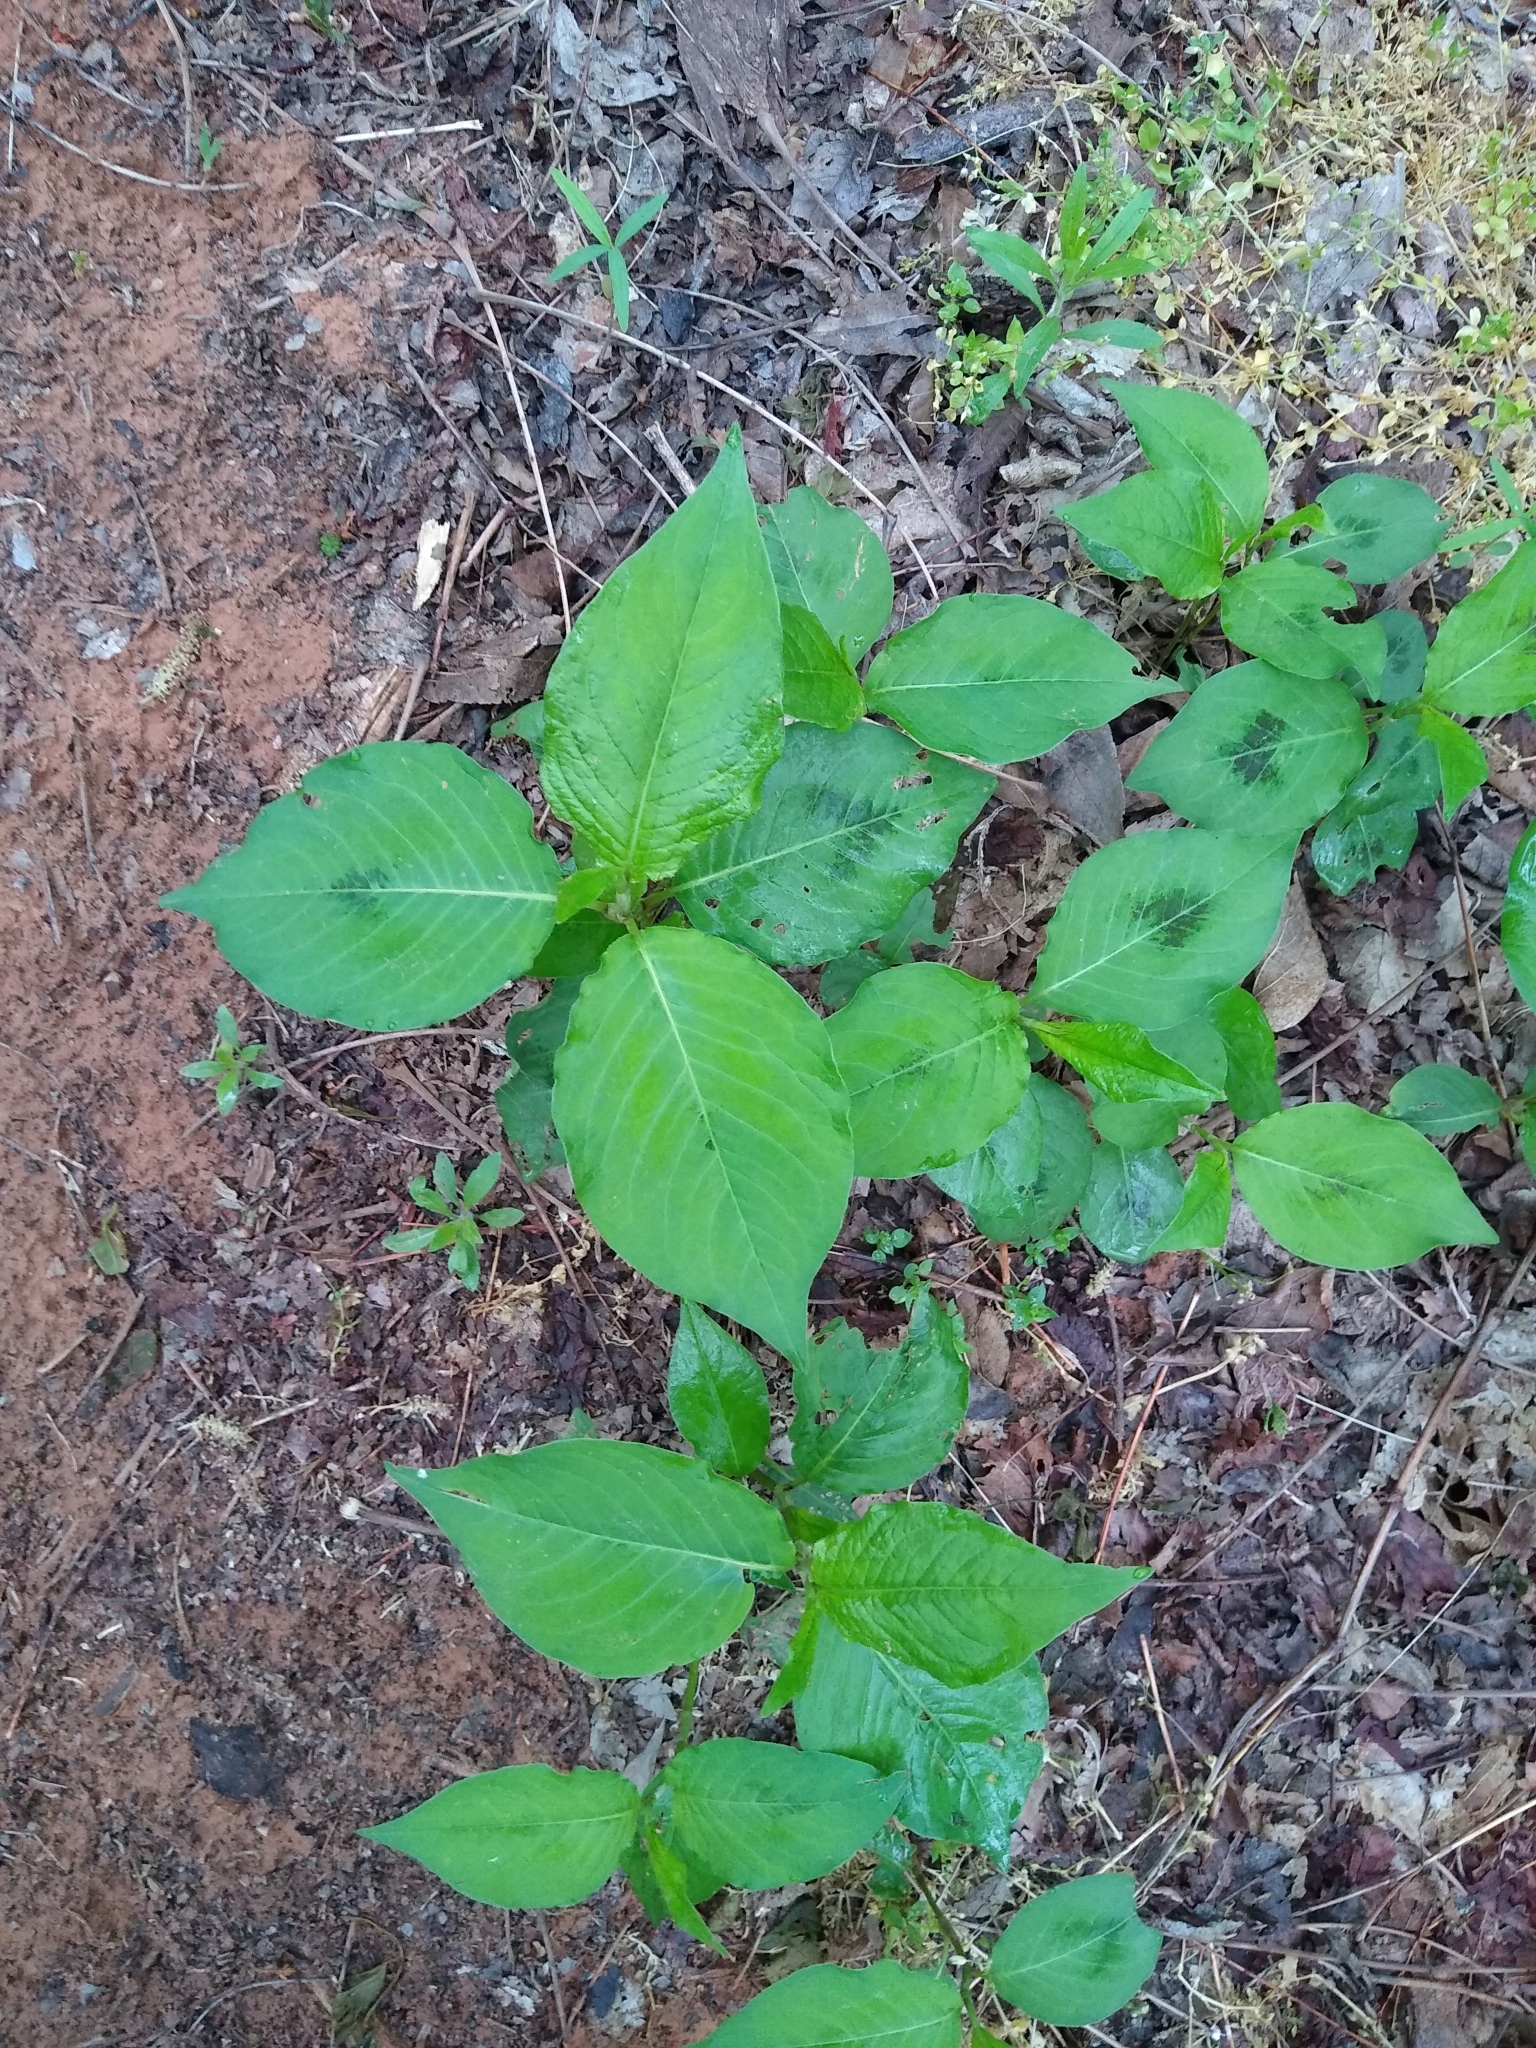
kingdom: Plantae
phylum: Tracheophyta
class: Magnoliopsida
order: Caryophyllales
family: Polygonaceae
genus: Persicaria
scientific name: Persicaria virginiana
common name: Jumpseed
